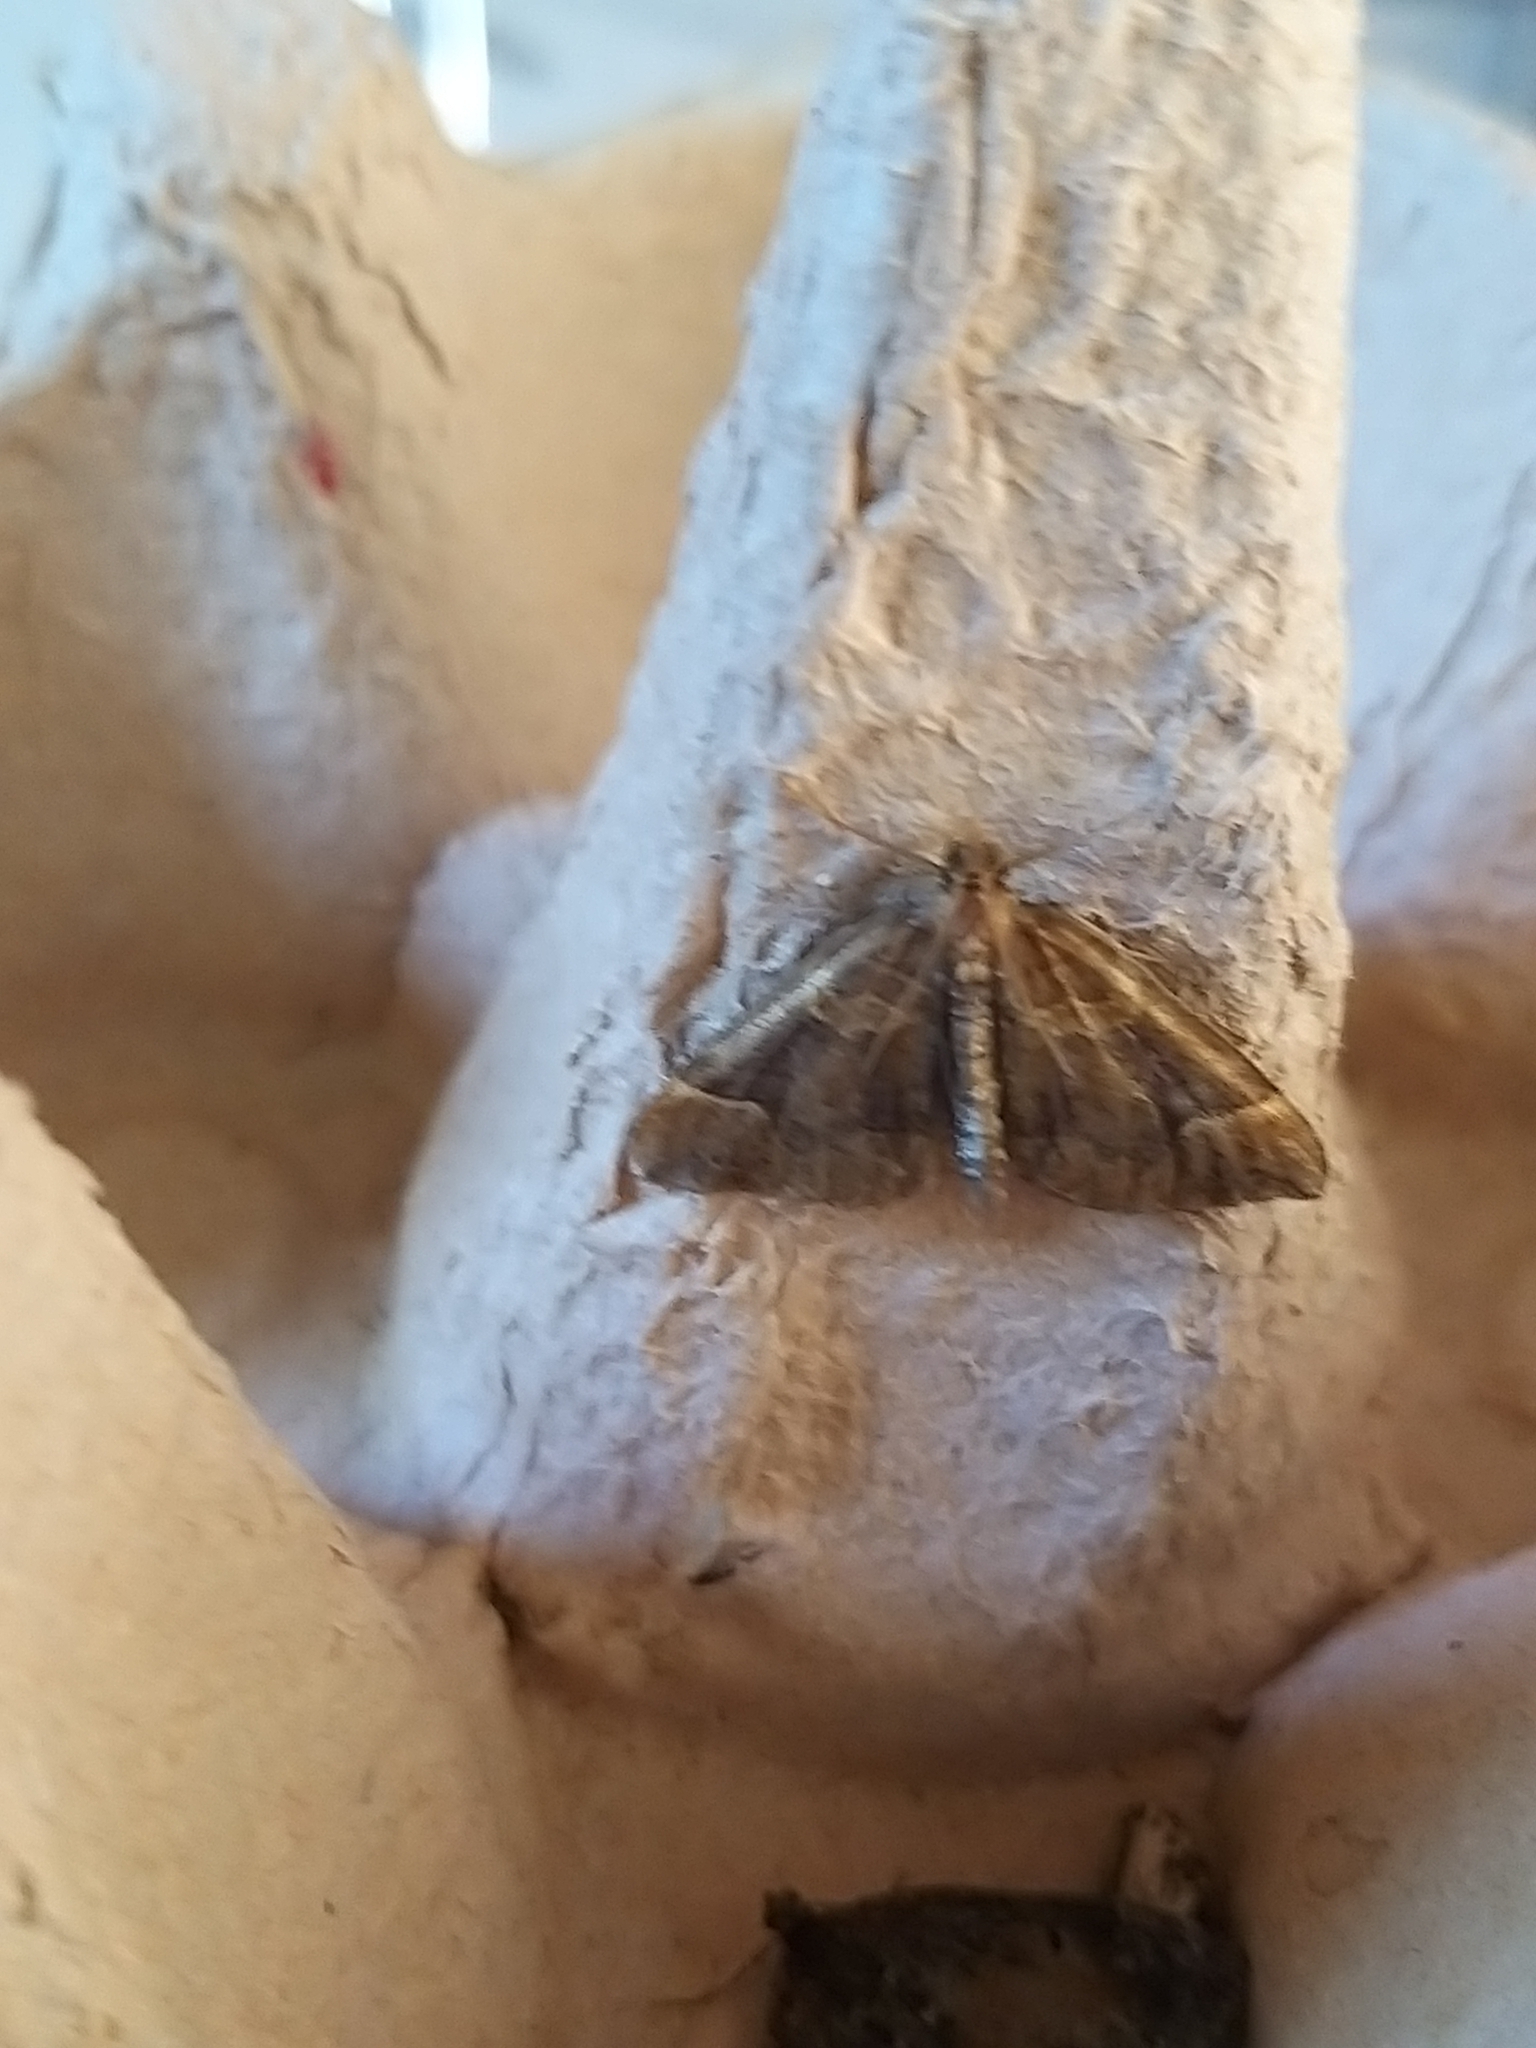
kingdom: Animalia
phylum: Arthropoda
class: Insecta
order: Lepidoptera
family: Geometridae
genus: Eulithis
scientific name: Eulithis testata
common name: Chevron
